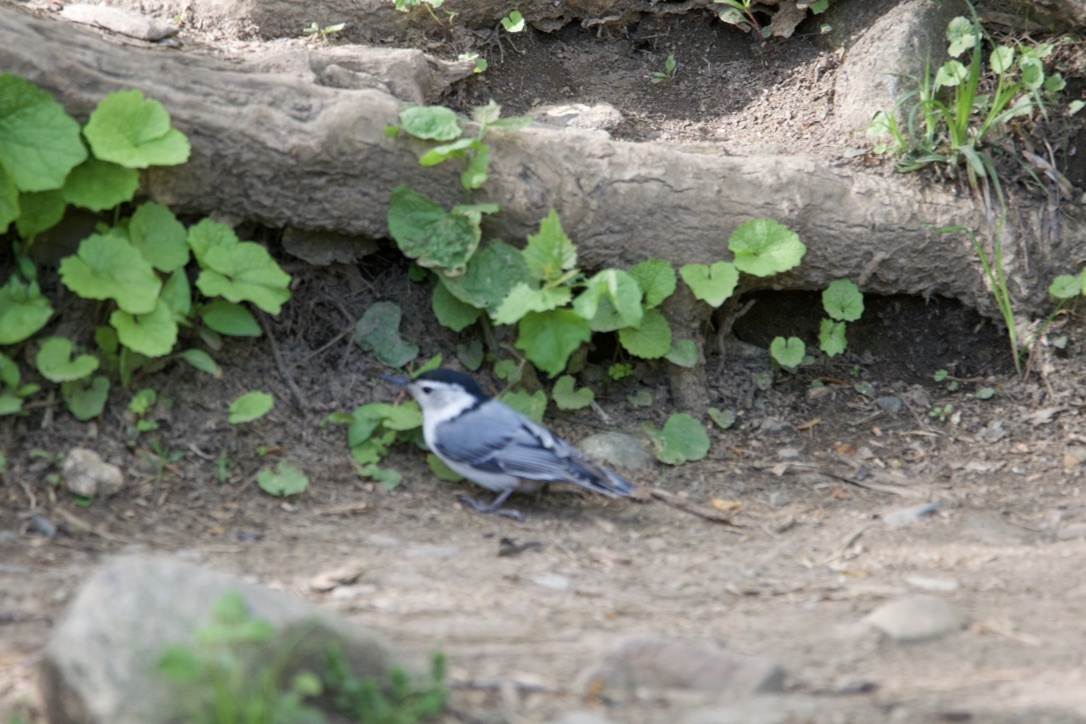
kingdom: Animalia
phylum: Chordata
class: Aves
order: Passeriformes
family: Sittidae
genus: Sitta
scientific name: Sitta carolinensis
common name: White-breasted nuthatch
